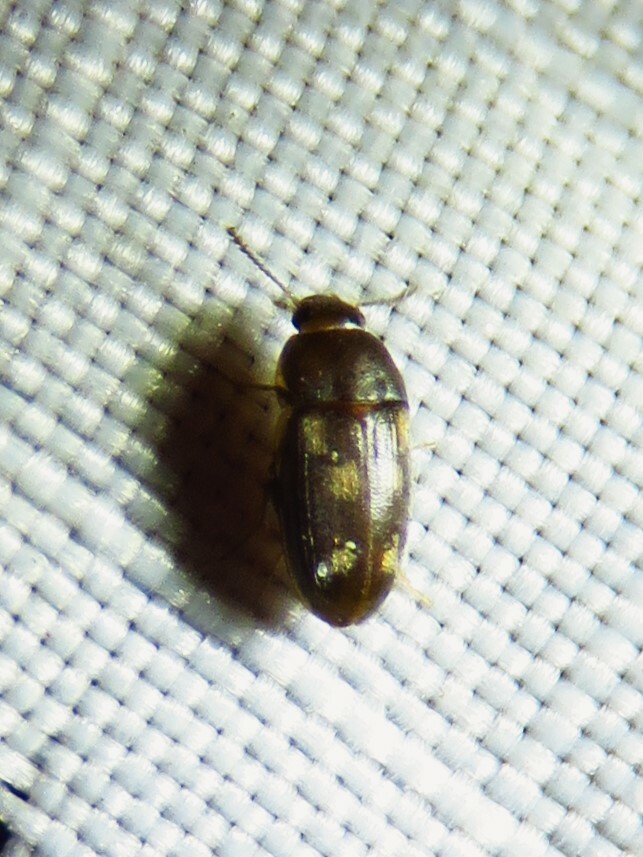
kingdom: Animalia
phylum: Arthropoda
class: Insecta
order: Coleoptera
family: Mycetophagidae
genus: Litargus
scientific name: Litargus sexpunctatus
